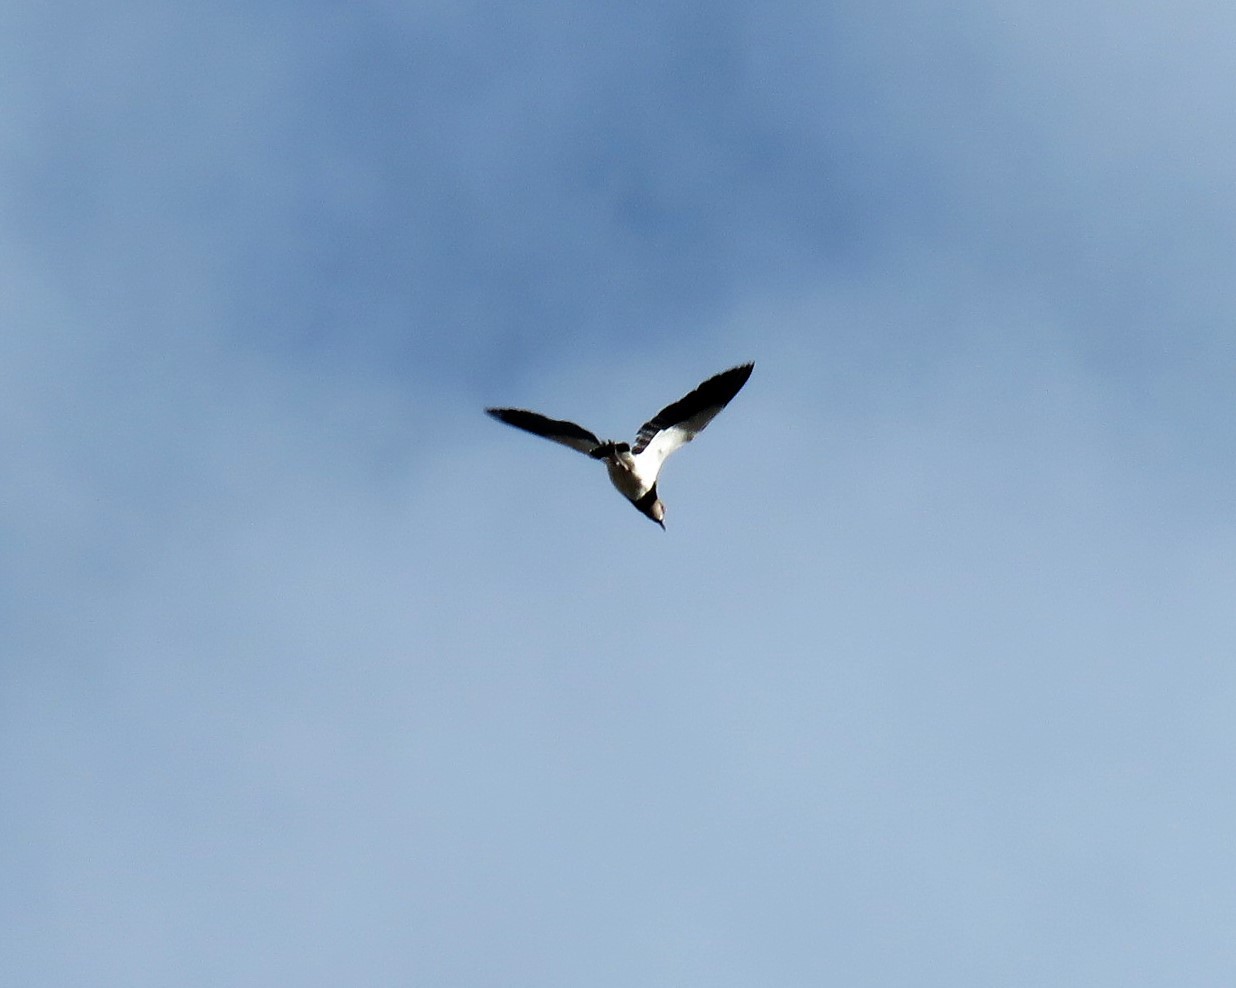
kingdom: Animalia
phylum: Chordata
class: Aves
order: Charadriiformes
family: Charadriidae
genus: Vanellus
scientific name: Vanellus chilensis
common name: Southern lapwing
